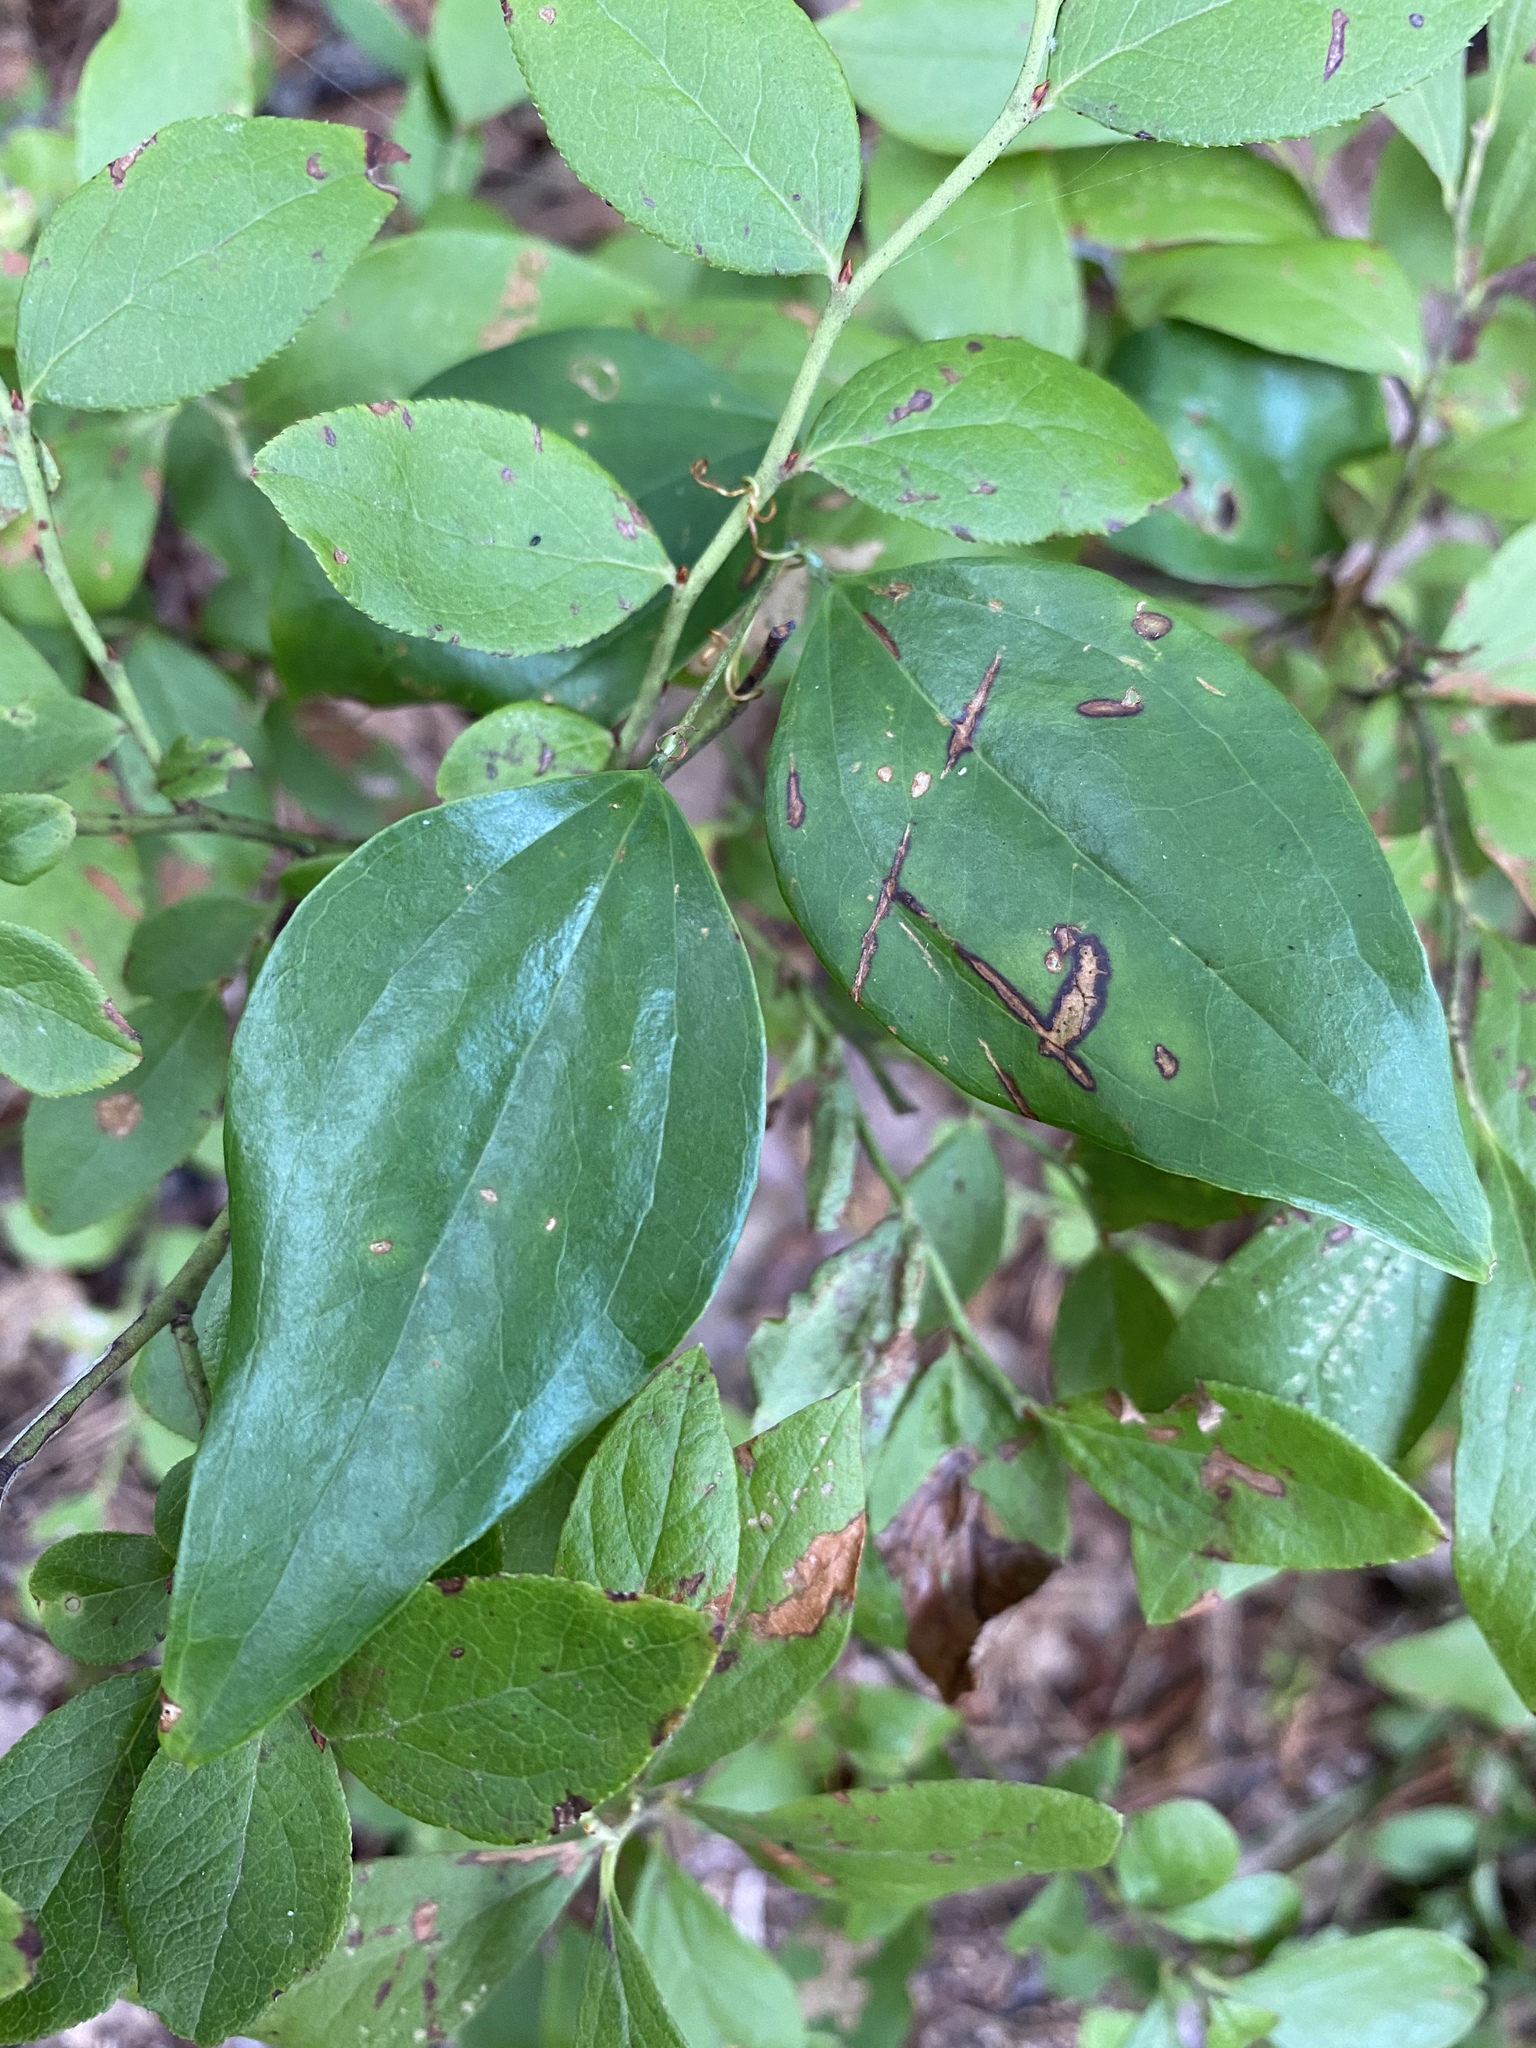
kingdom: Plantae
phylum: Tracheophyta
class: Liliopsida
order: Liliales
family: Smilacaceae
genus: Smilax
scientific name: Smilax glauca
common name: Cat greenbrier
